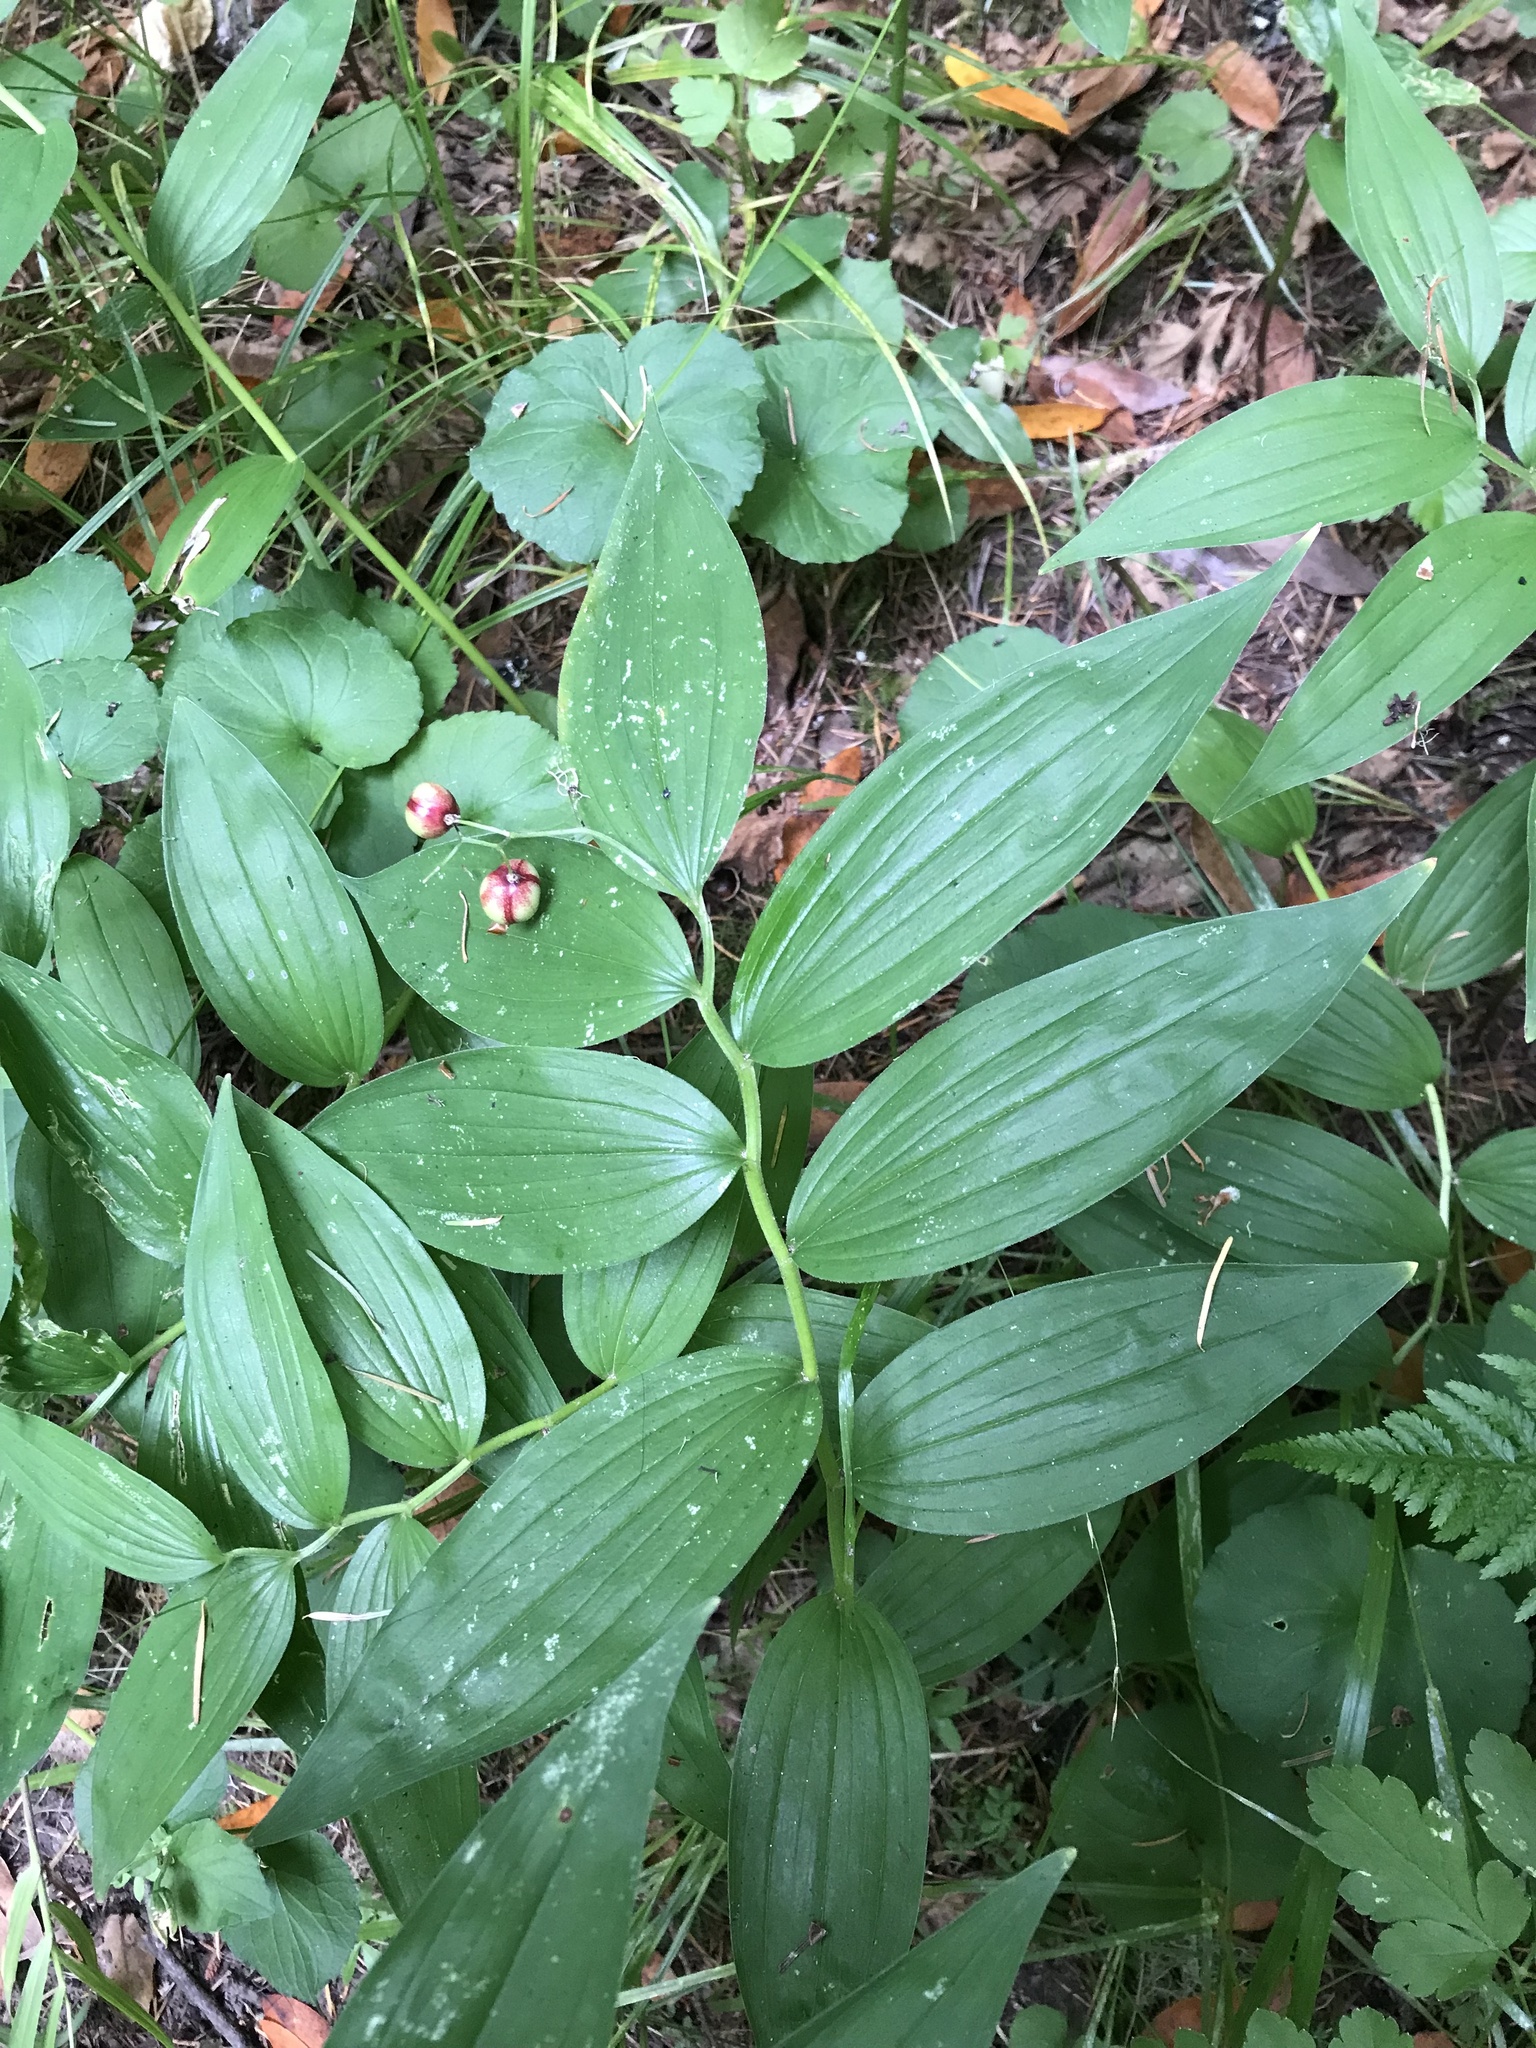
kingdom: Plantae
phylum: Tracheophyta
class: Liliopsida
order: Asparagales
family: Asparagaceae
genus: Maianthemum
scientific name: Maianthemum stellatum
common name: Little false solomon's seal
